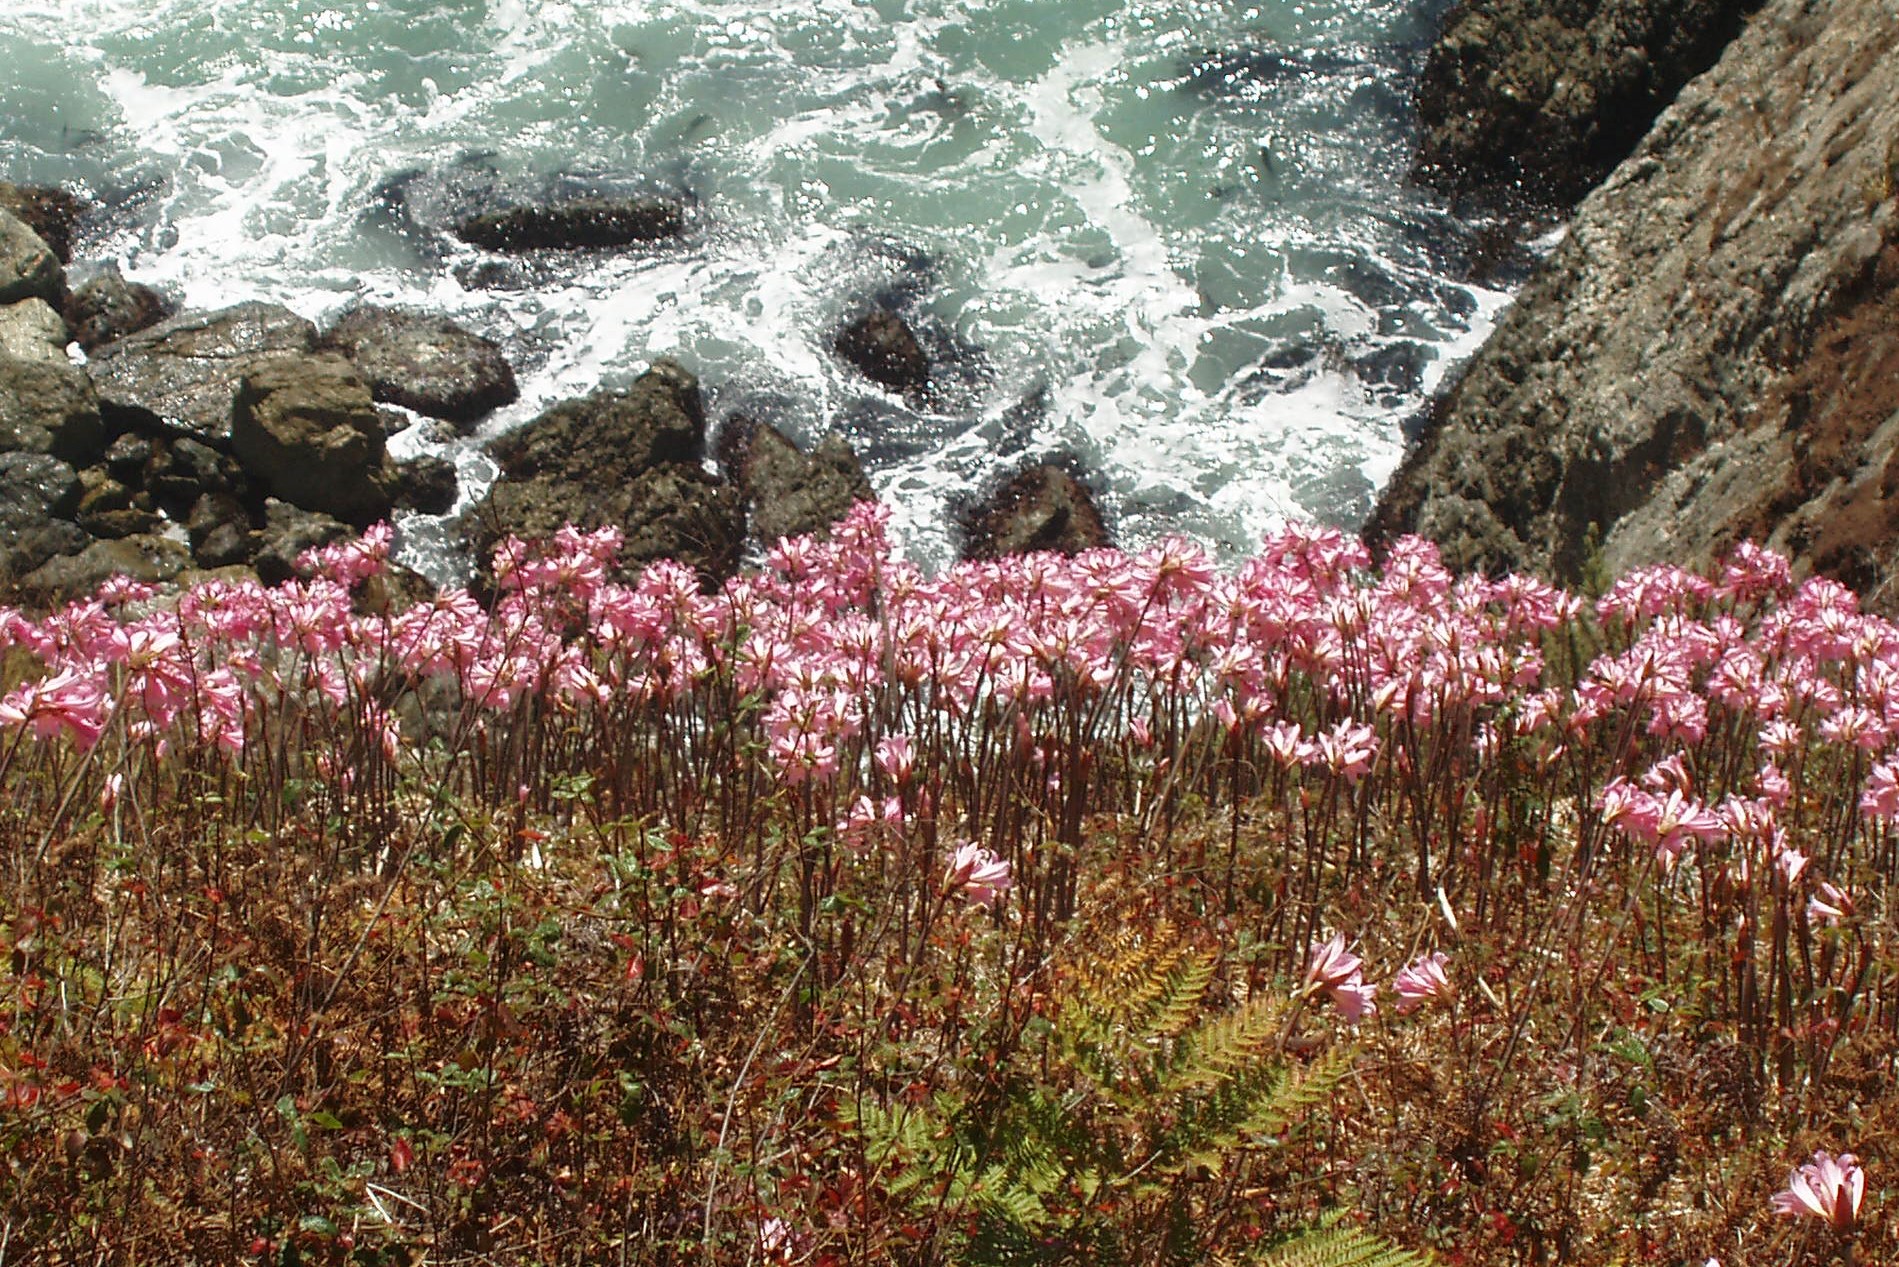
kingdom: Plantae
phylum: Tracheophyta
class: Liliopsida
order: Asparagales
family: Amaryllidaceae
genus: Amaryllis
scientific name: Amaryllis belladonna
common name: Jersey lily
